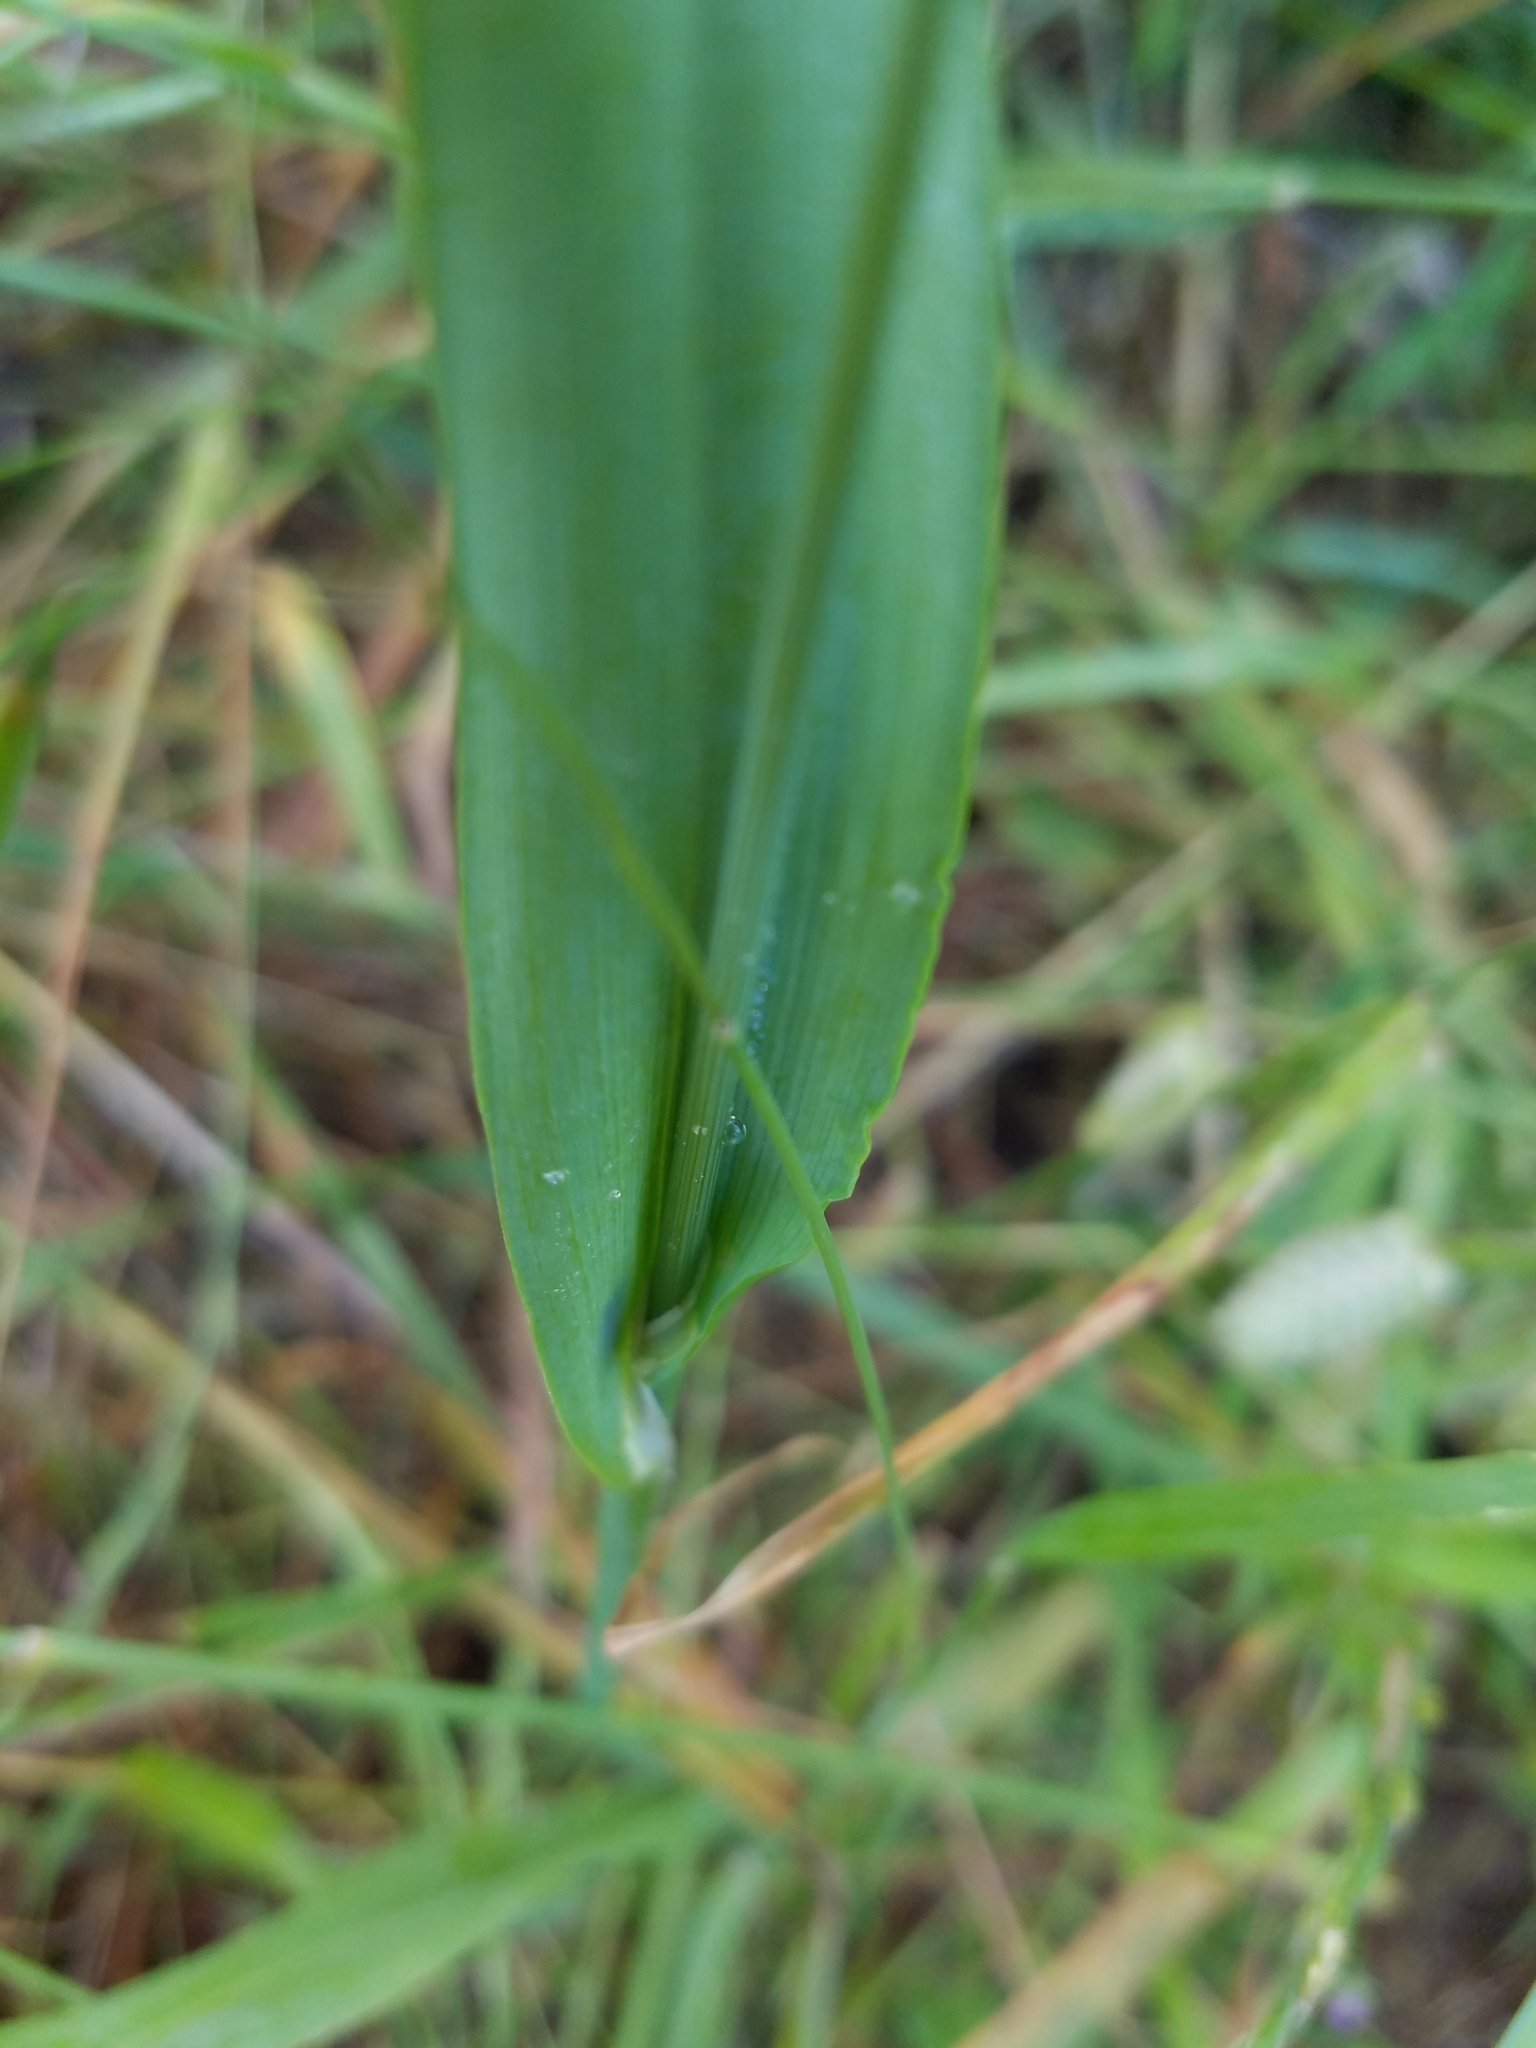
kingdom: Plantae
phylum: Tracheophyta
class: Liliopsida
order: Poales
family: Poaceae
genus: Cynosurus
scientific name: Cynosurus echinatus
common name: Rough dog's-tail
